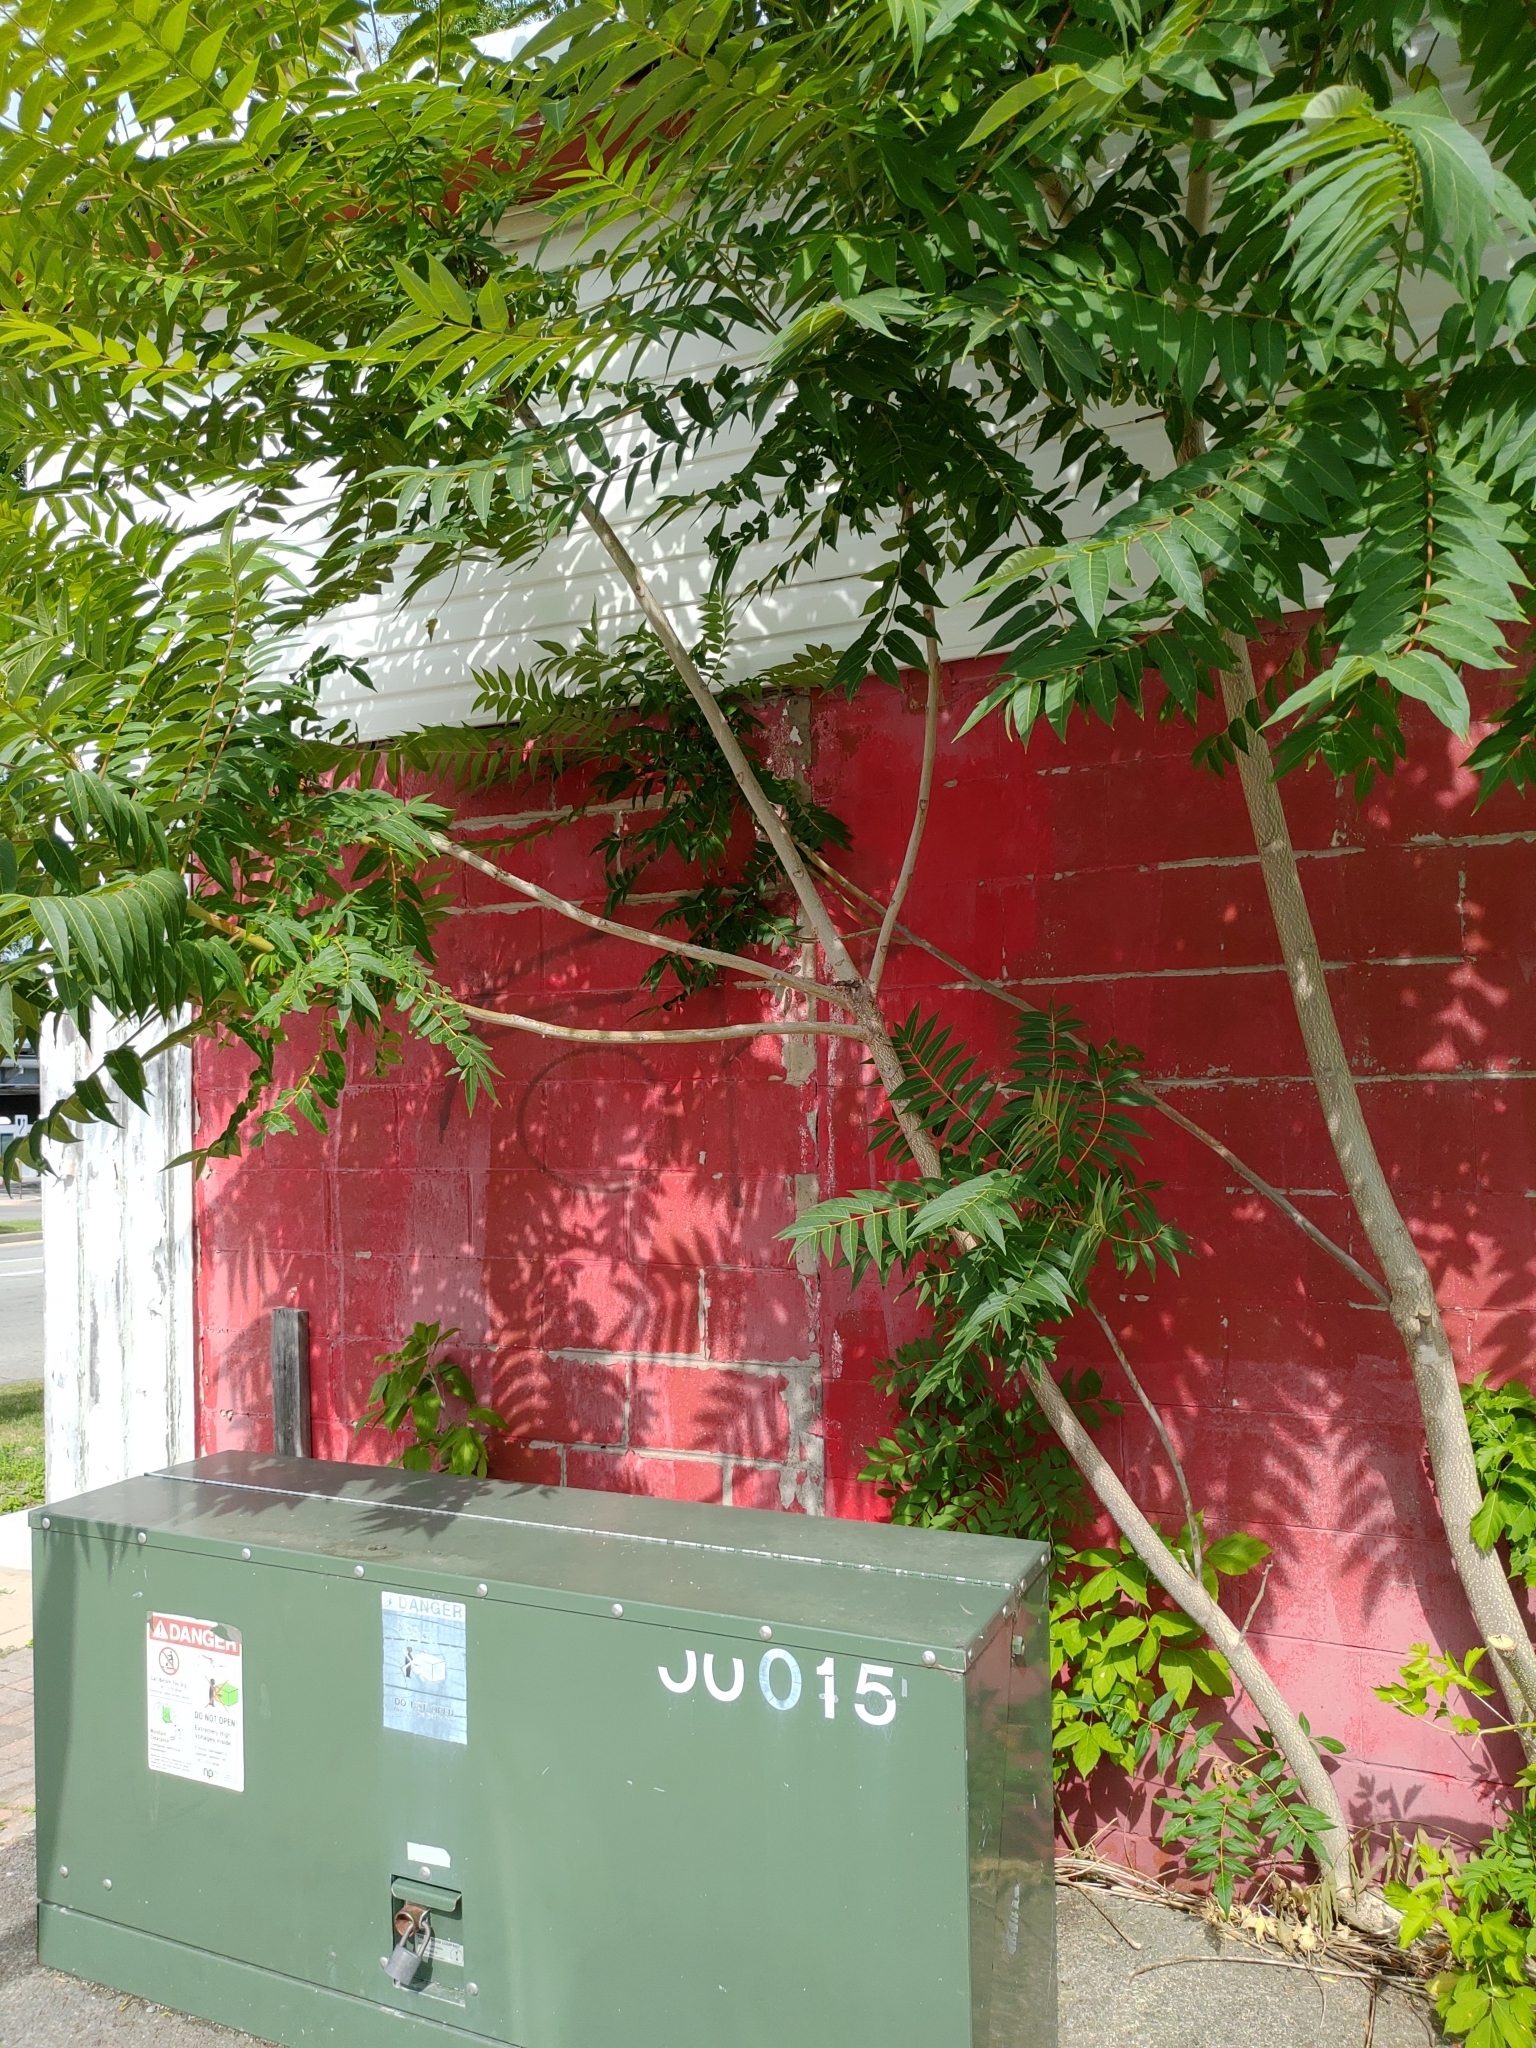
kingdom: Plantae
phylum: Tracheophyta
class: Magnoliopsida
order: Sapindales
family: Simaroubaceae
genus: Ailanthus
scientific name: Ailanthus altissima
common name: Tree-of-heaven
